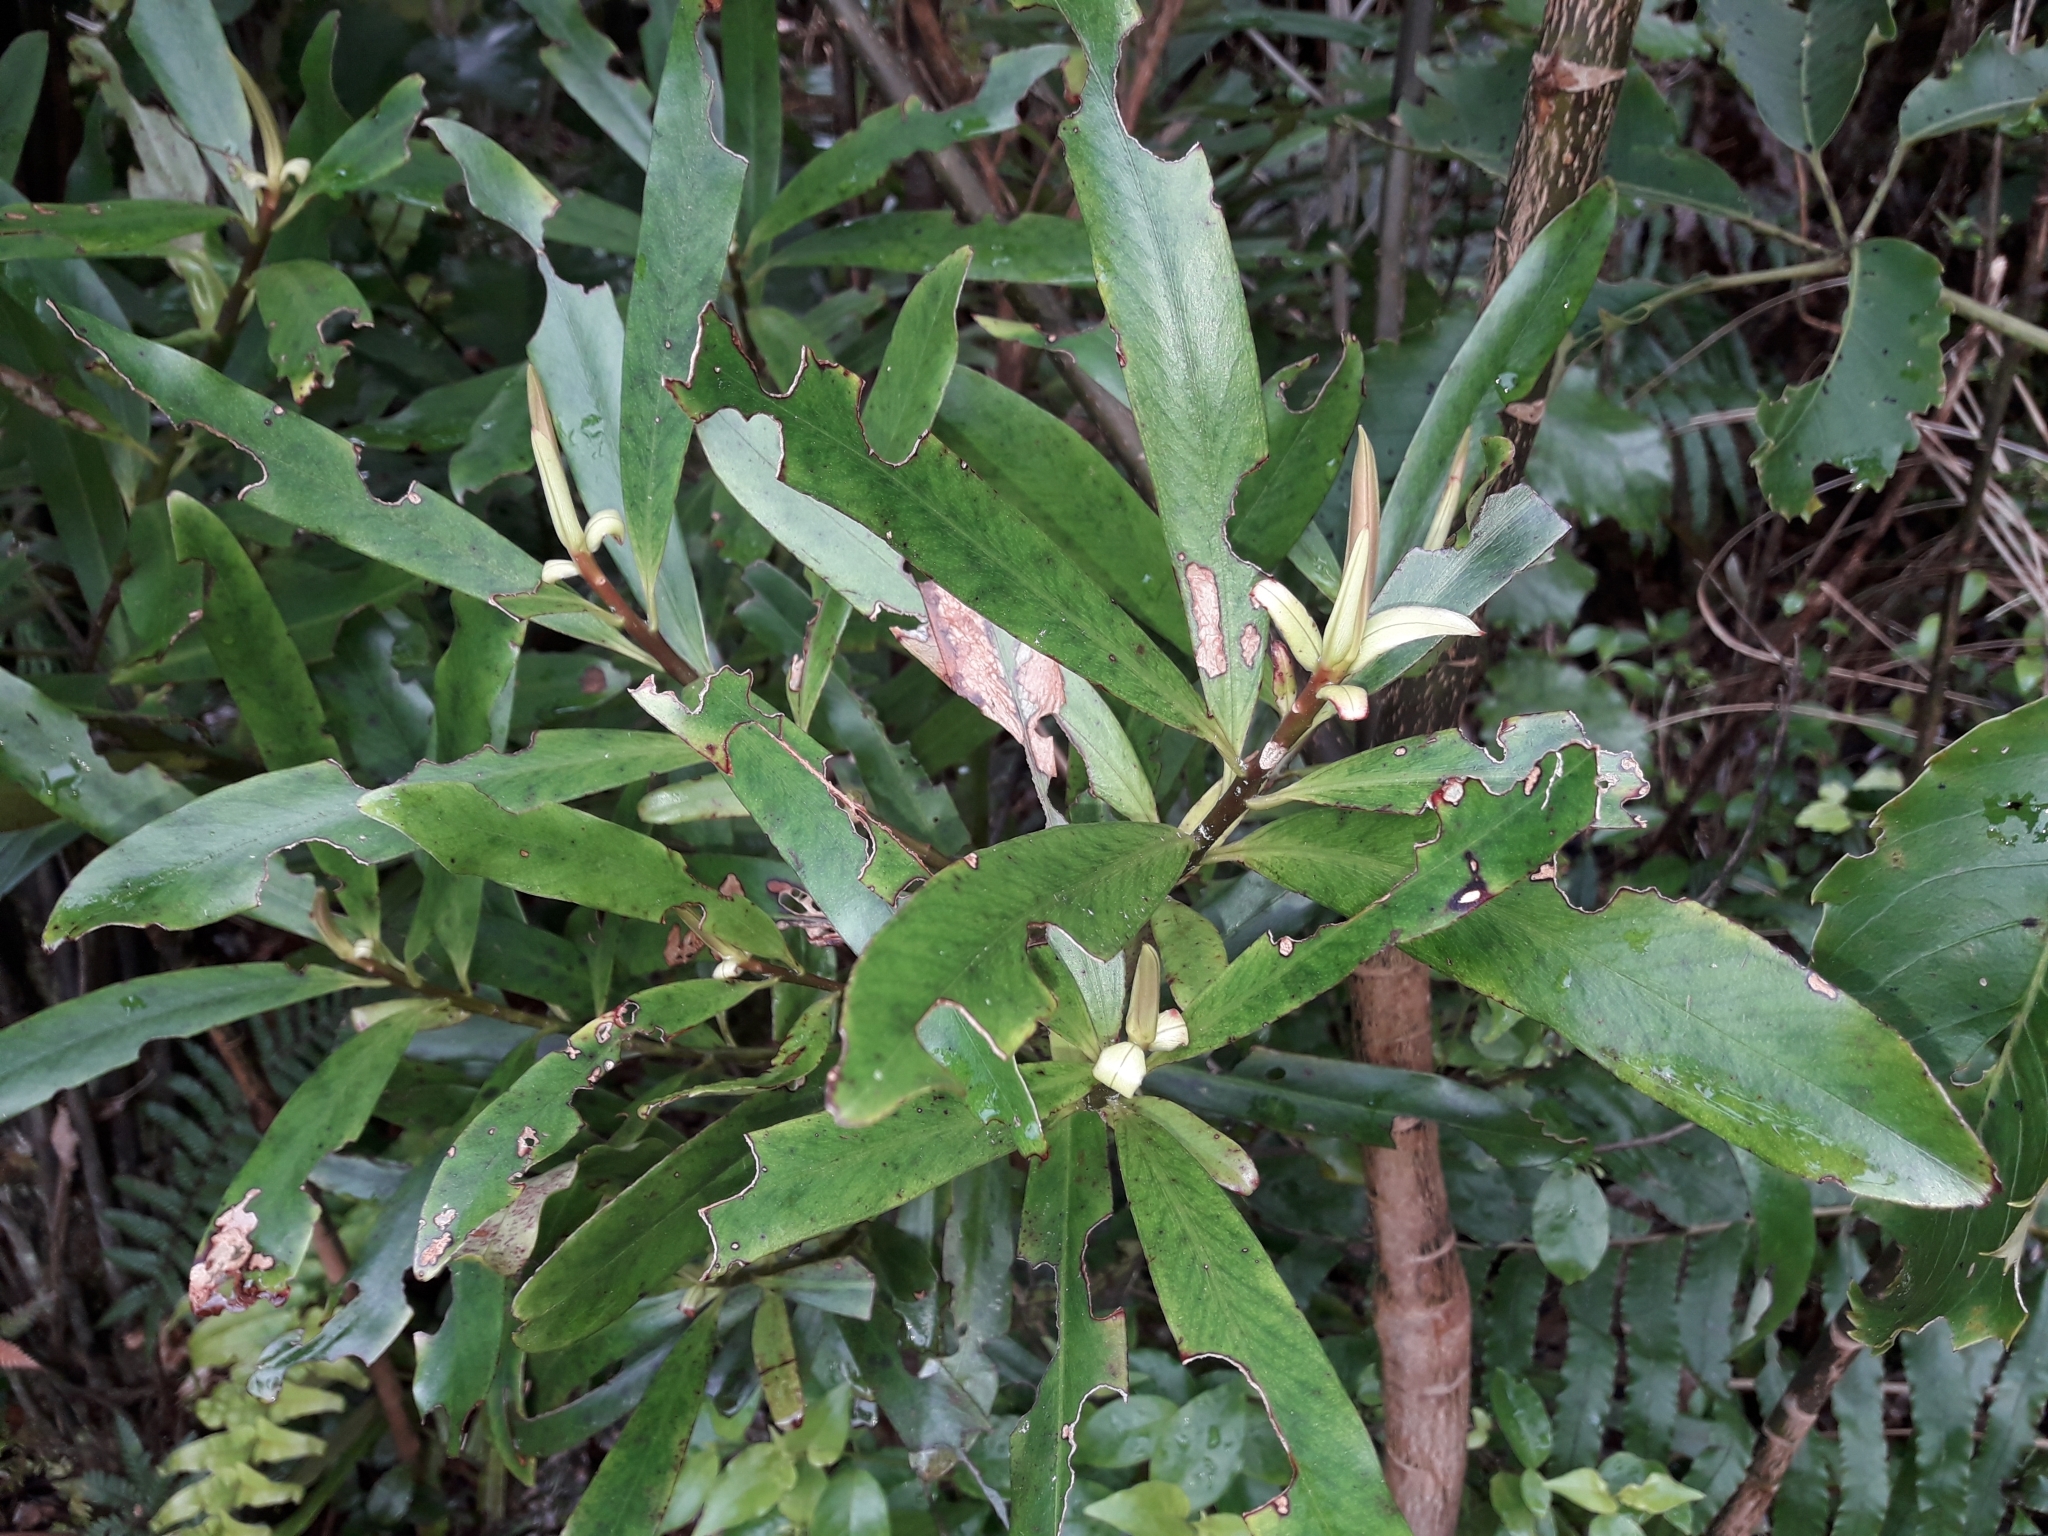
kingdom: Plantae
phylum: Tracheophyta
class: Magnoliopsida
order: Ericales
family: Primulaceae
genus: Myrsine
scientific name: Myrsine salicina
